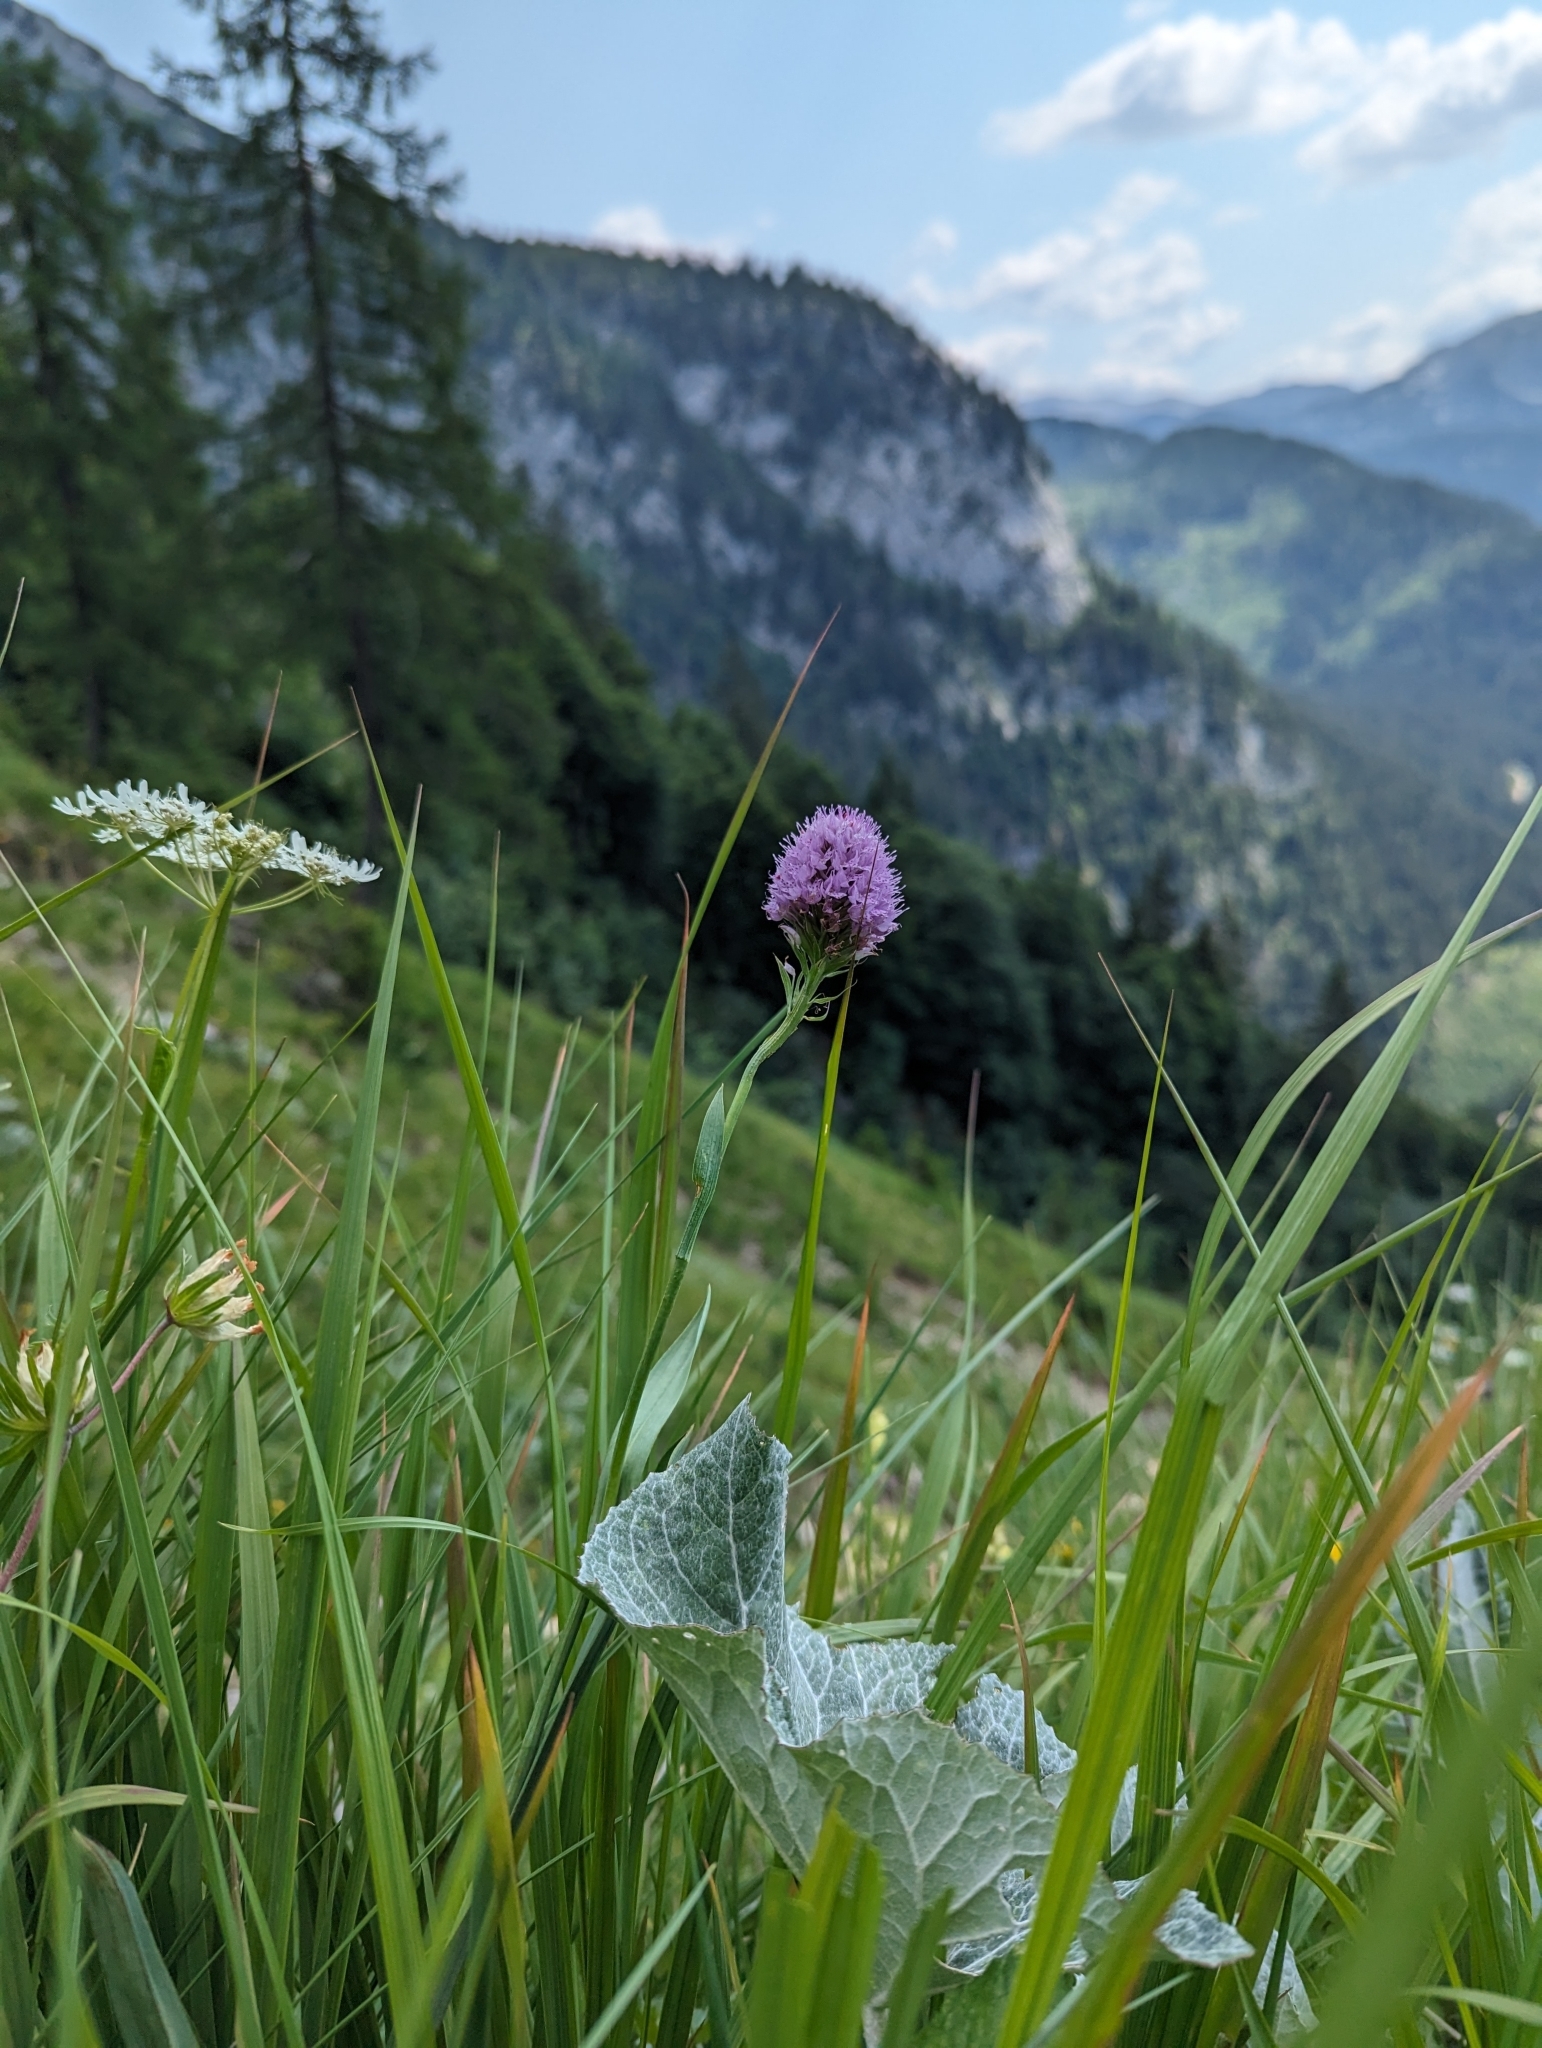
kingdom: Plantae
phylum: Tracheophyta
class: Liliopsida
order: Asparagales
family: Orchidaceae
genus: Traunsteinera
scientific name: Traunsteinera globosa
